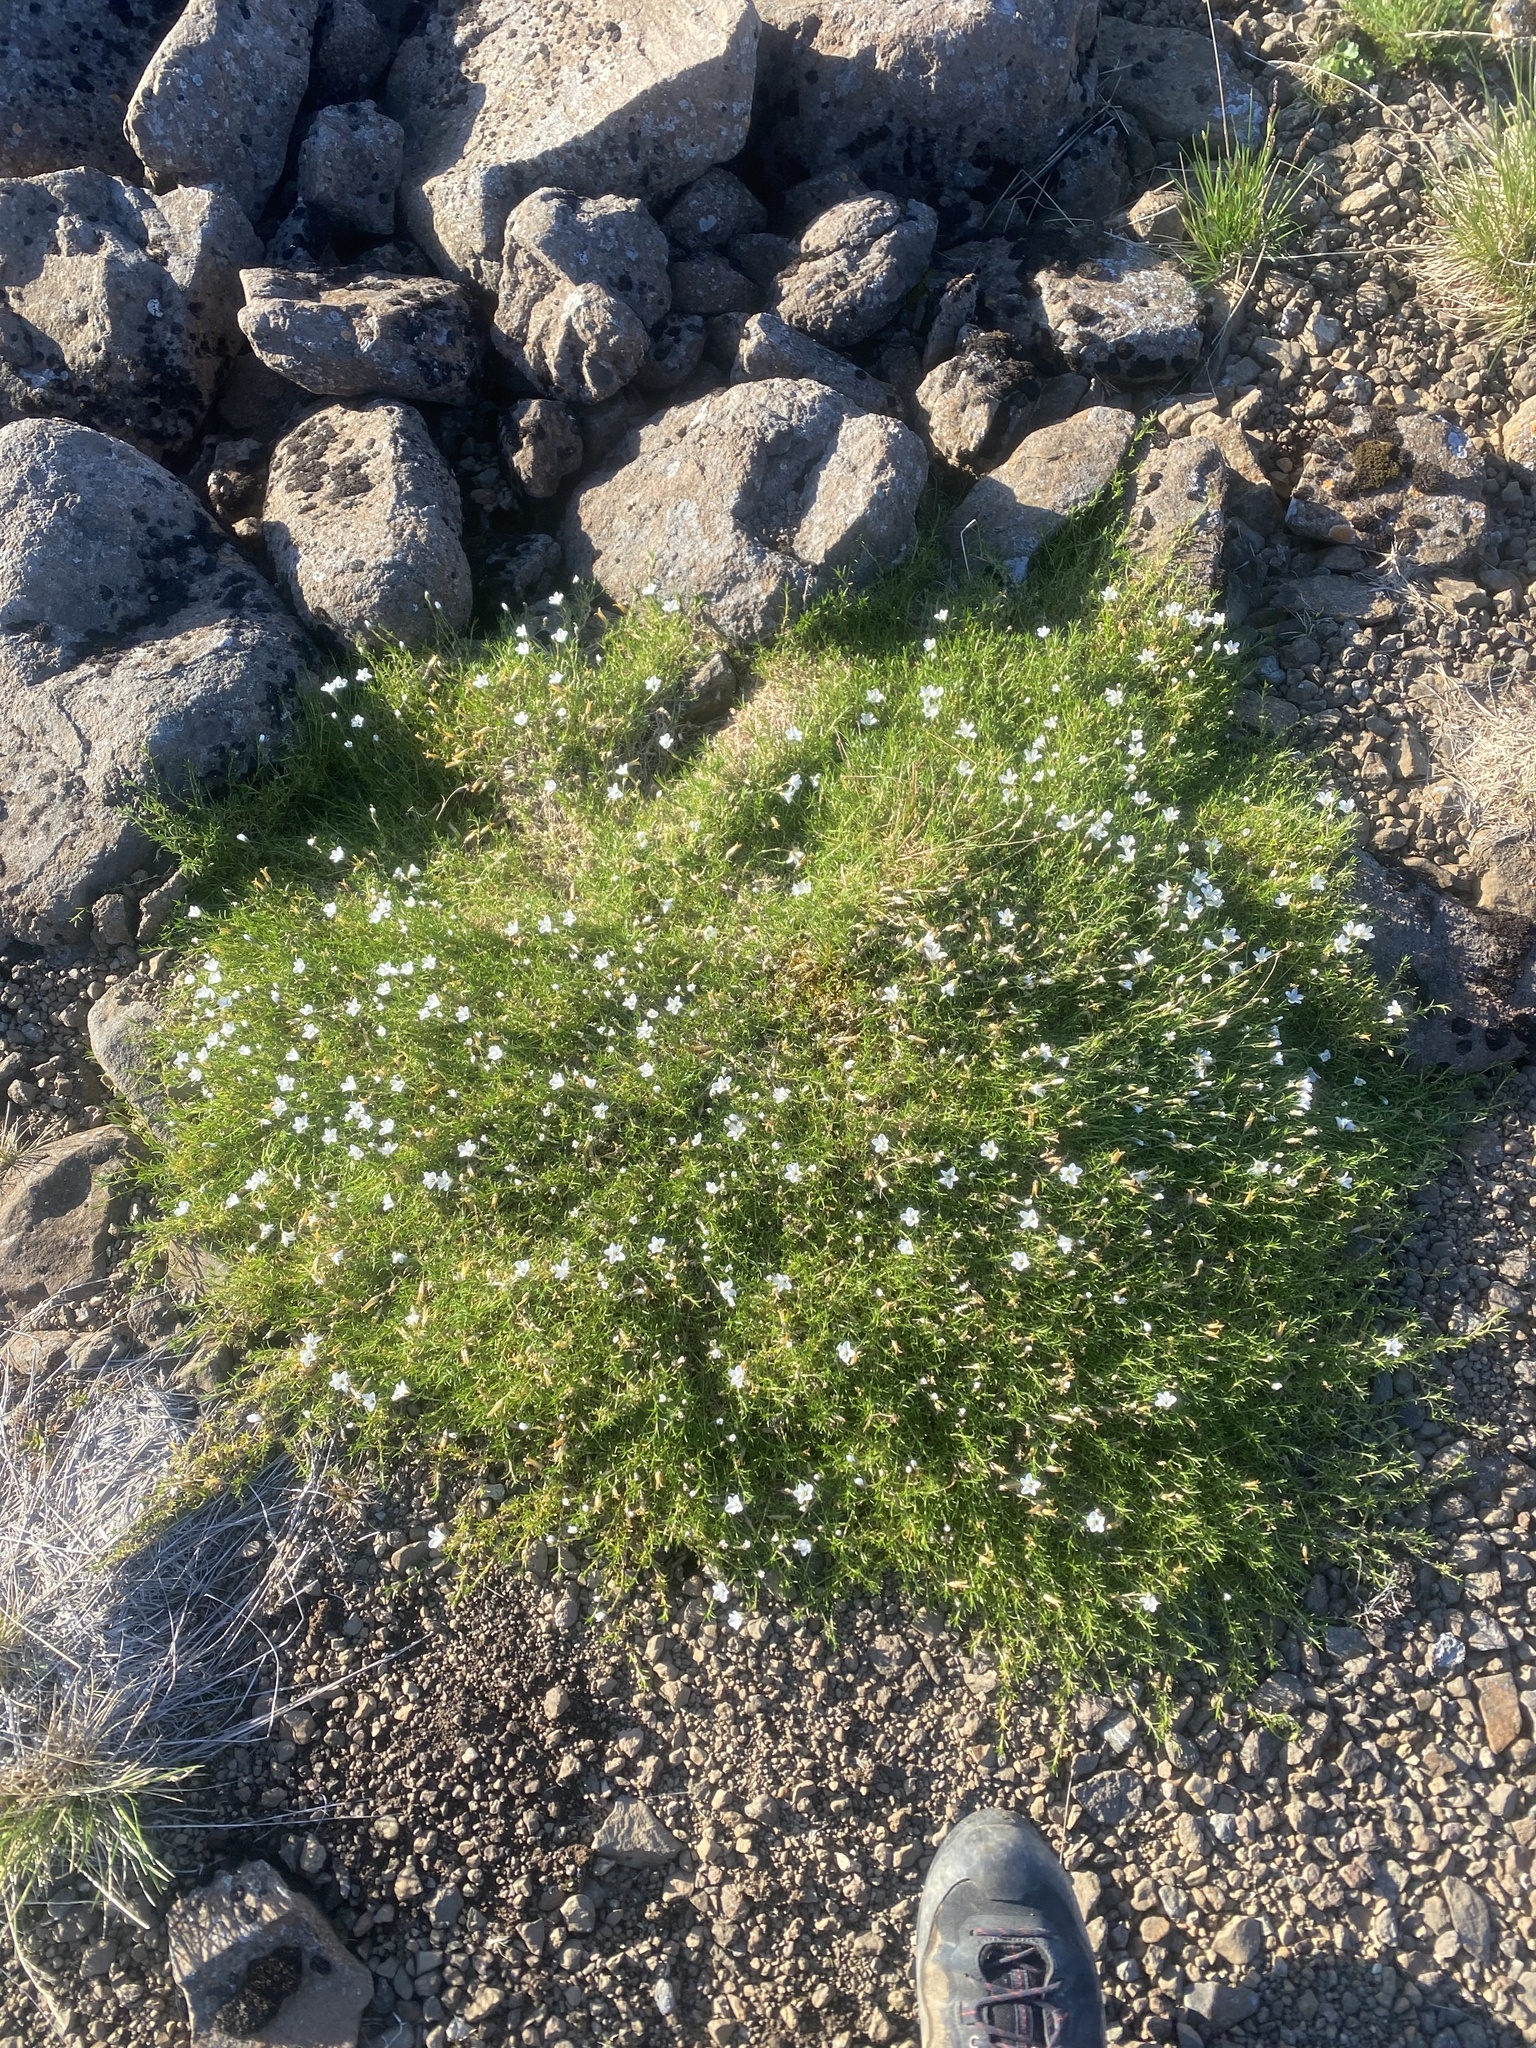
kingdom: Plantae
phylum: Tracheophyta
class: Magnoliopsida
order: Caryophyllales
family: Caryophyllaceae
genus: Cherleria
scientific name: Cherleria arctica
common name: Arctic sandwort
